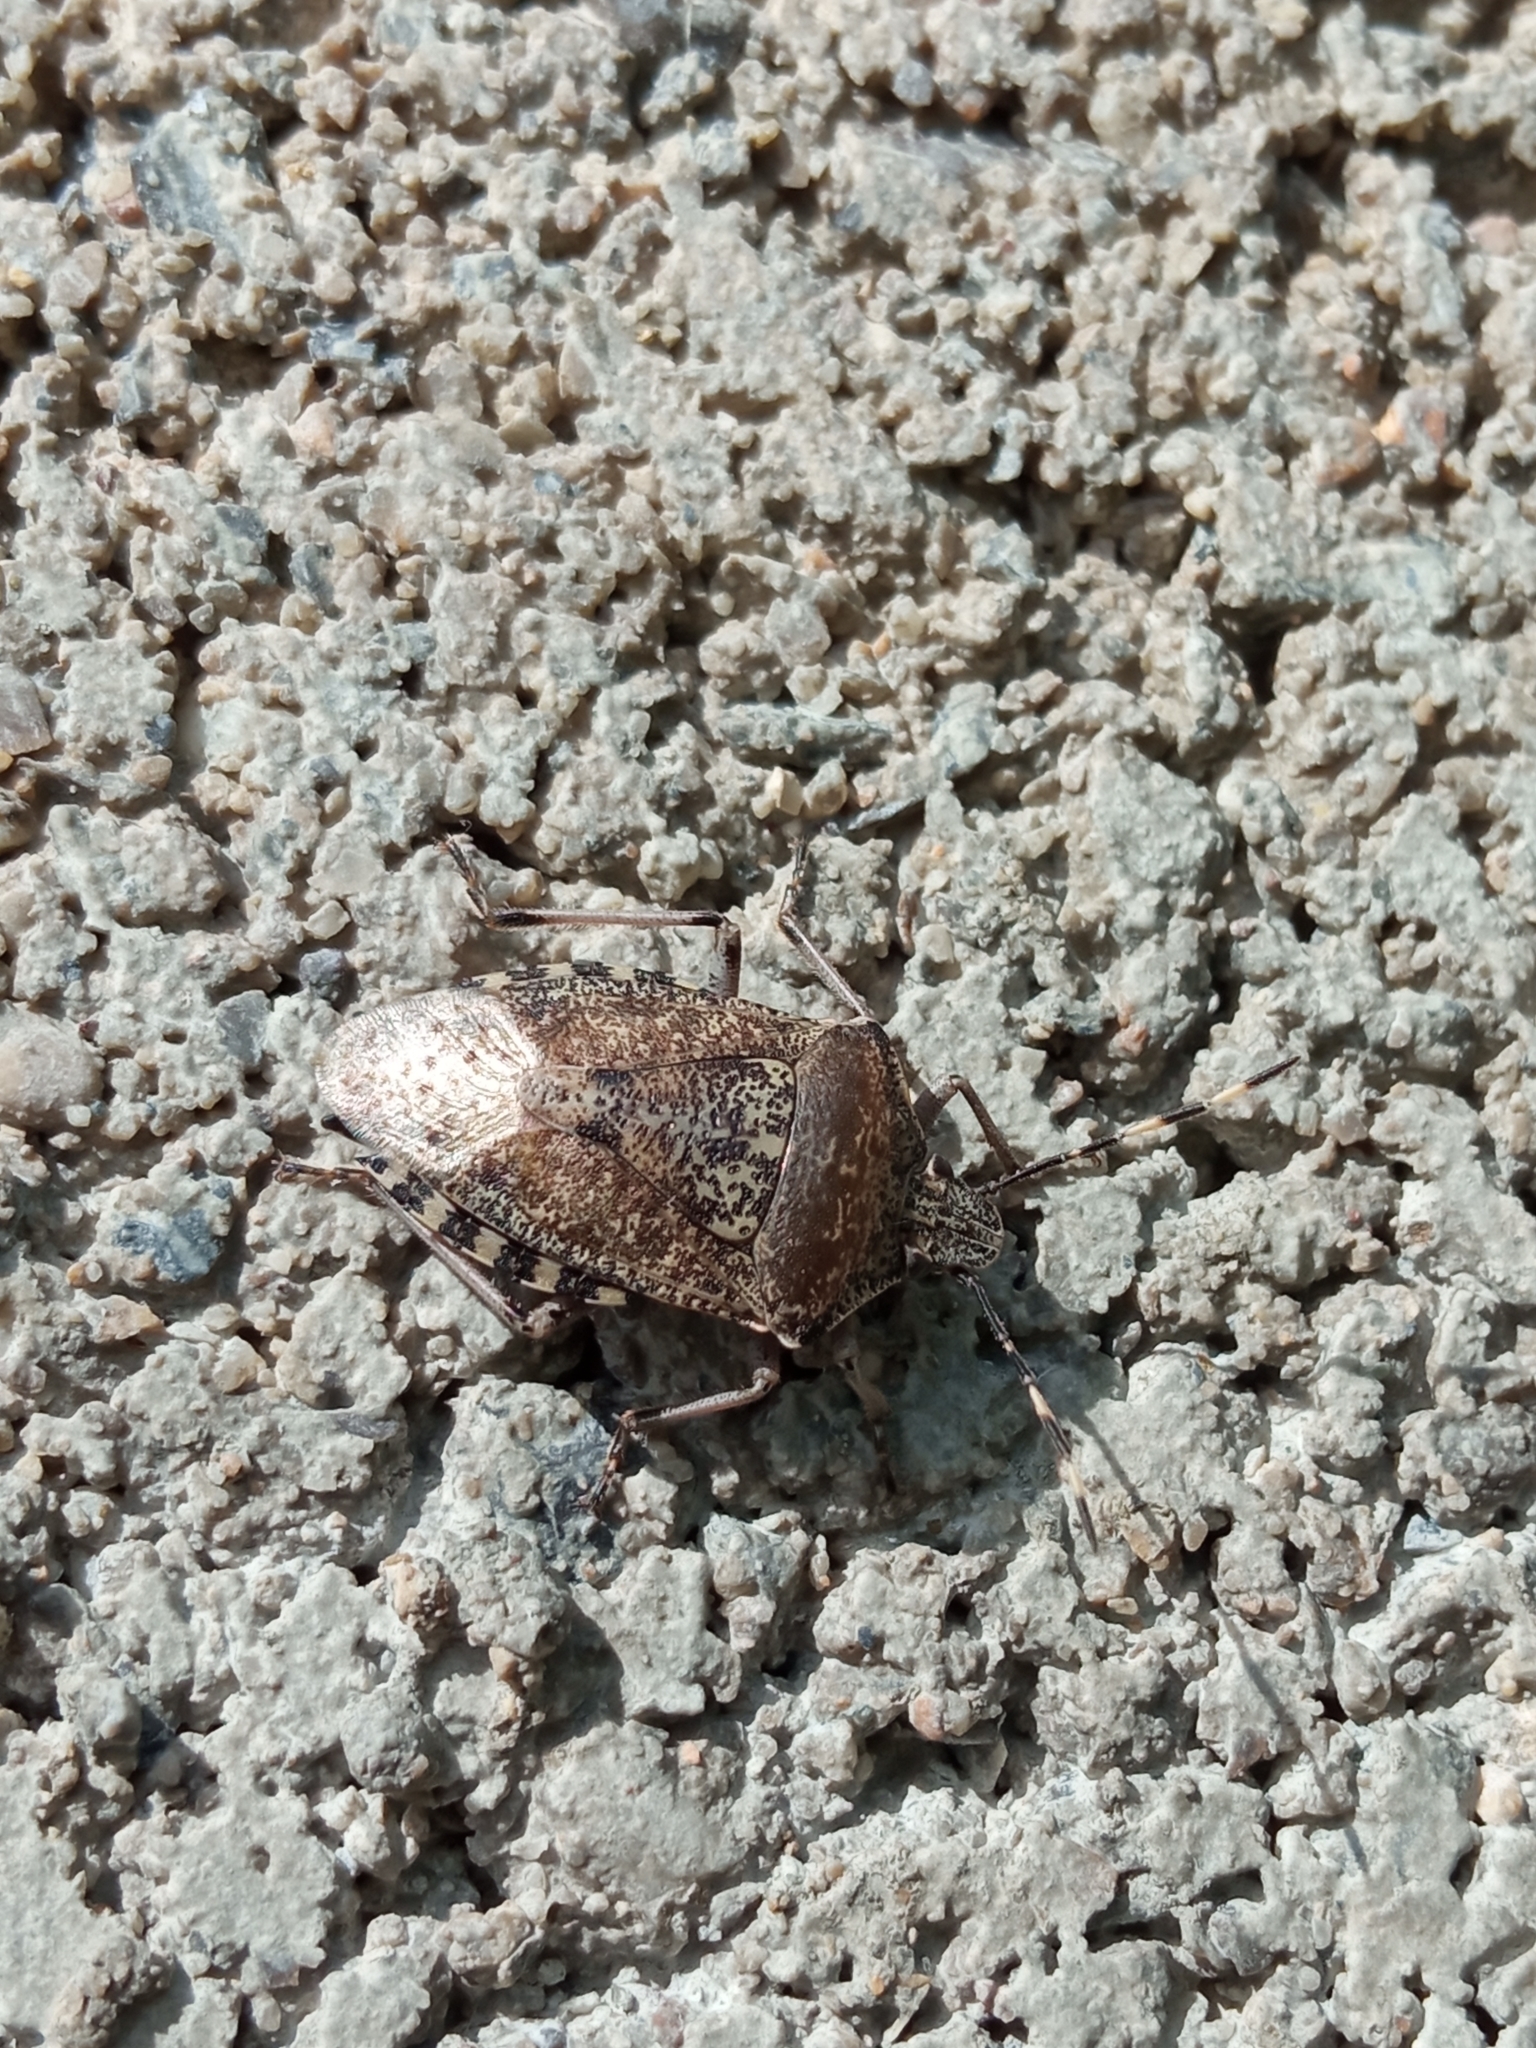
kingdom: Animalia
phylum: Arthropoda
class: Insecta
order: Hemiptera
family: Pentatomidae
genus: Rhaphigaster
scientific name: Rhaphigaster nebulosa
